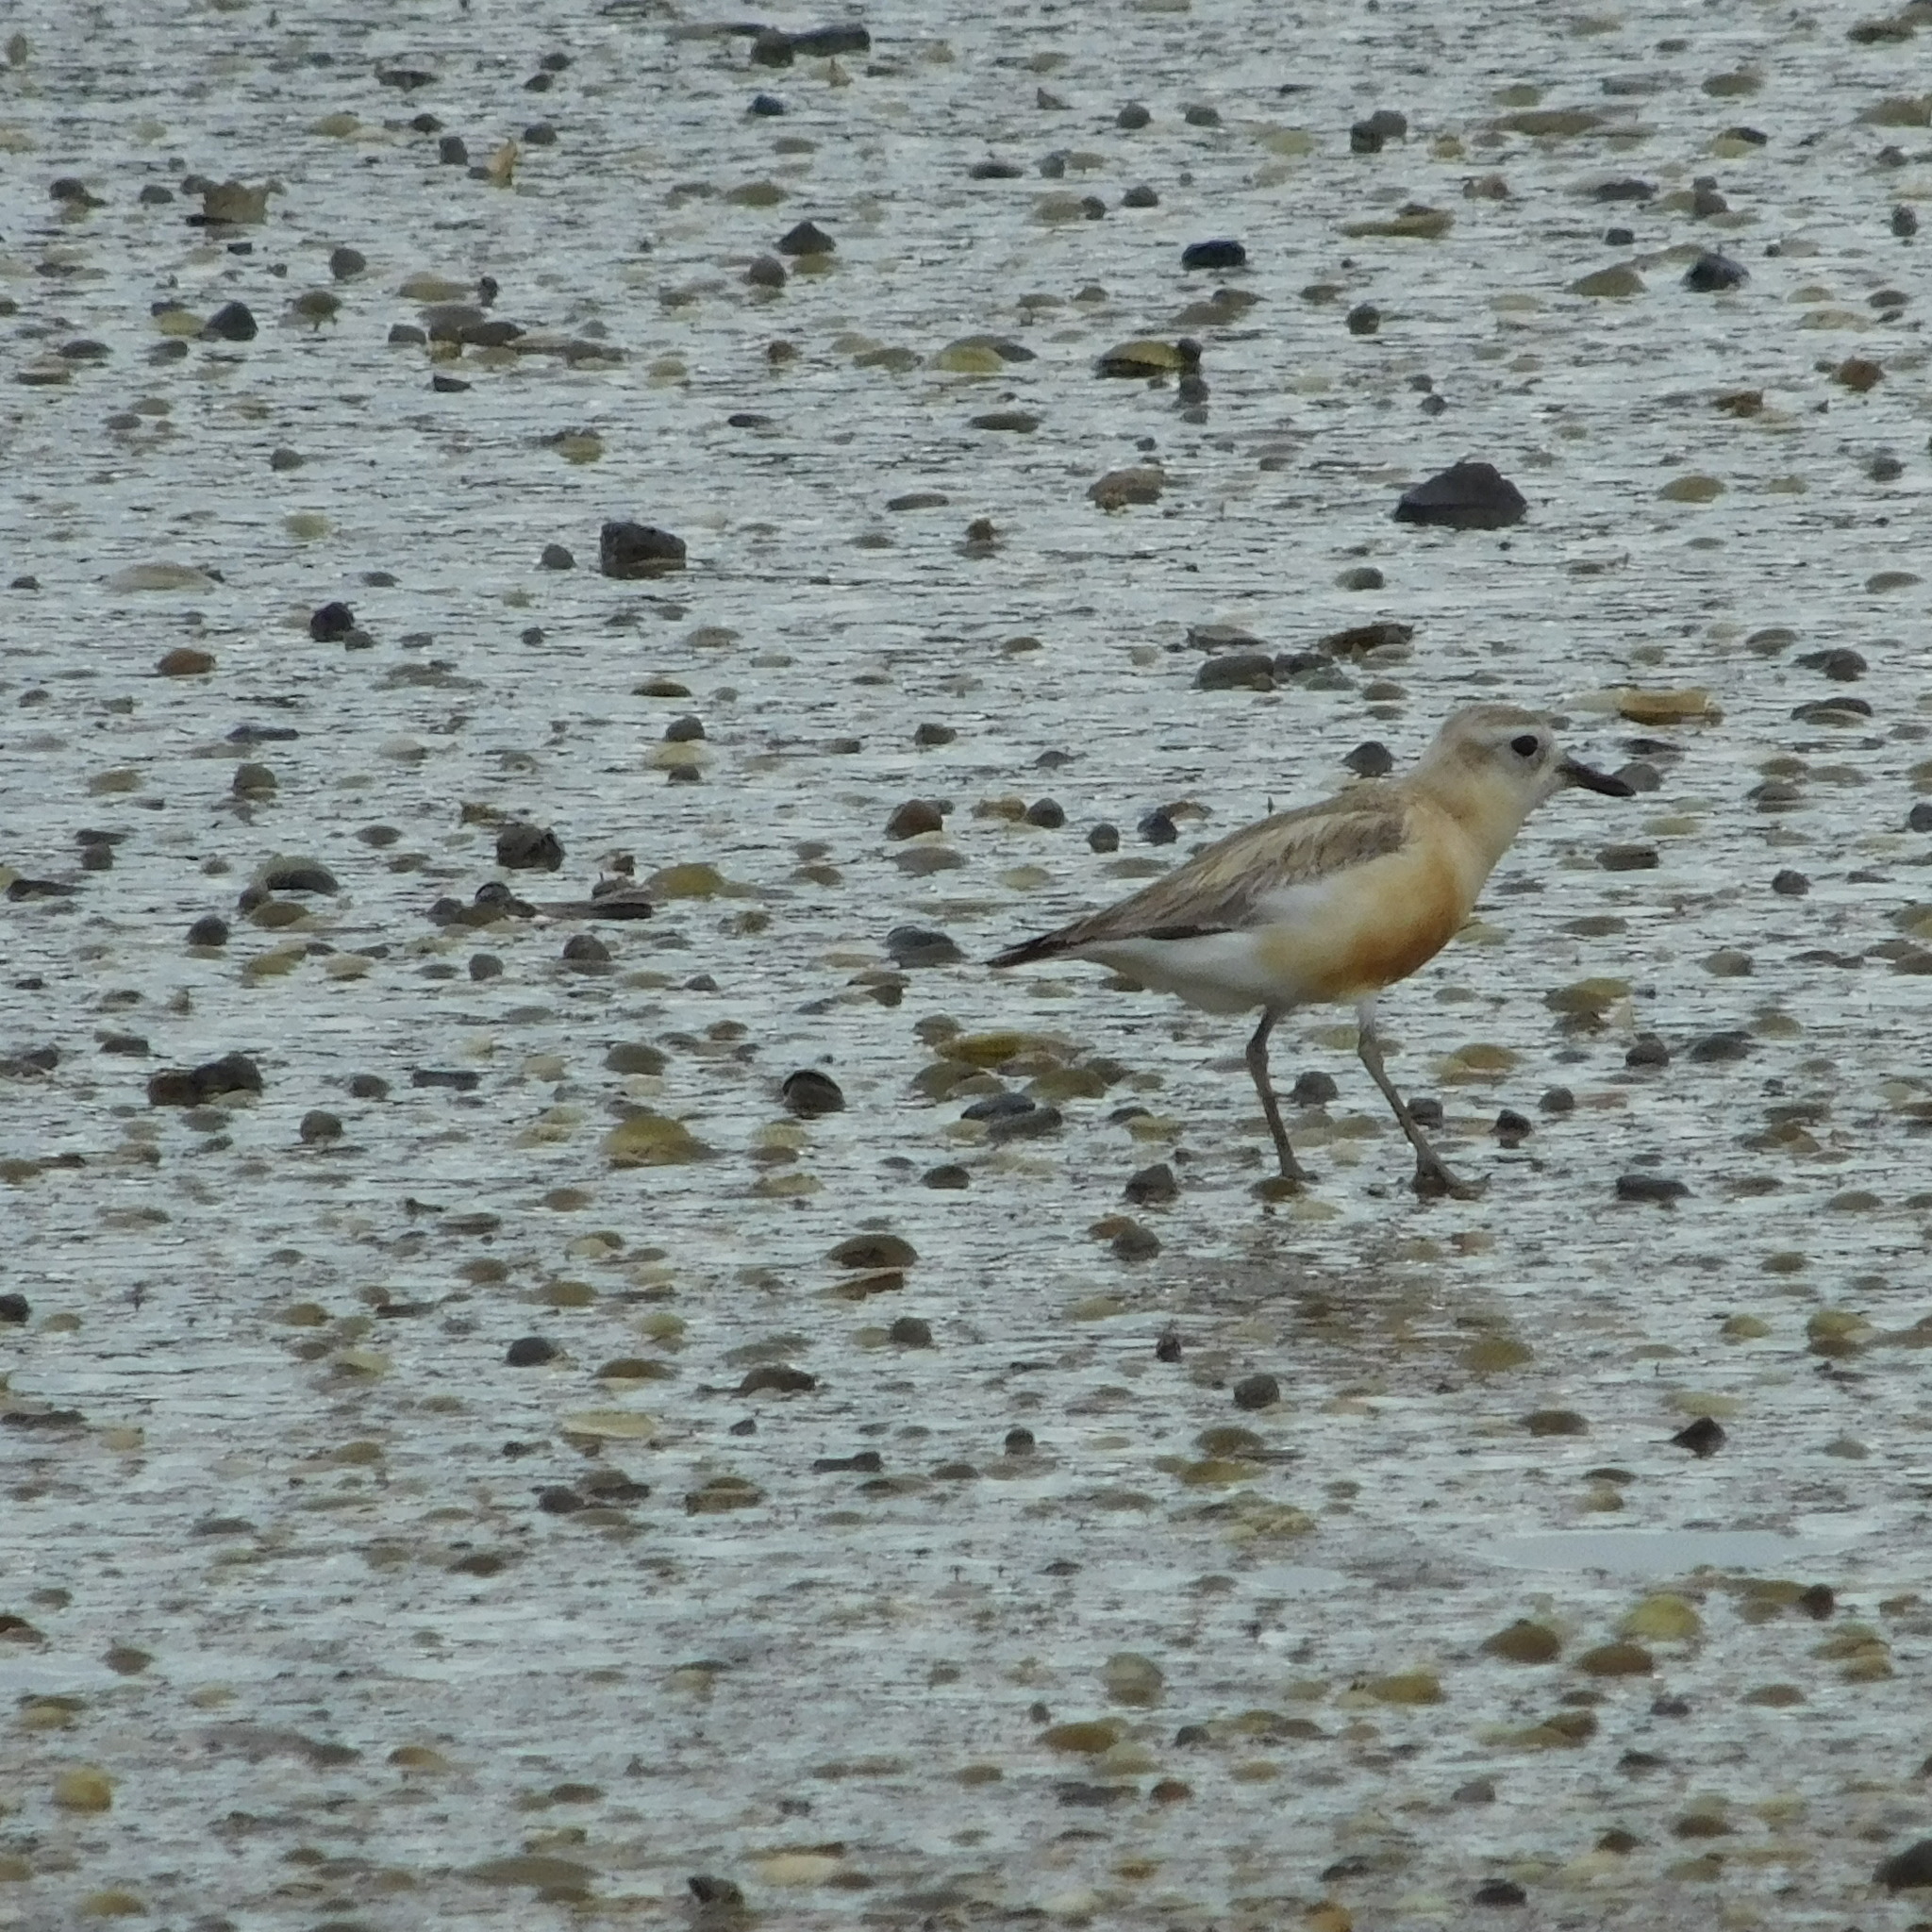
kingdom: Animalia
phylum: Chordata
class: Aves
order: Charadriiformes
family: Charadriidae
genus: Anarhynchus
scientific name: Anarhynchus
